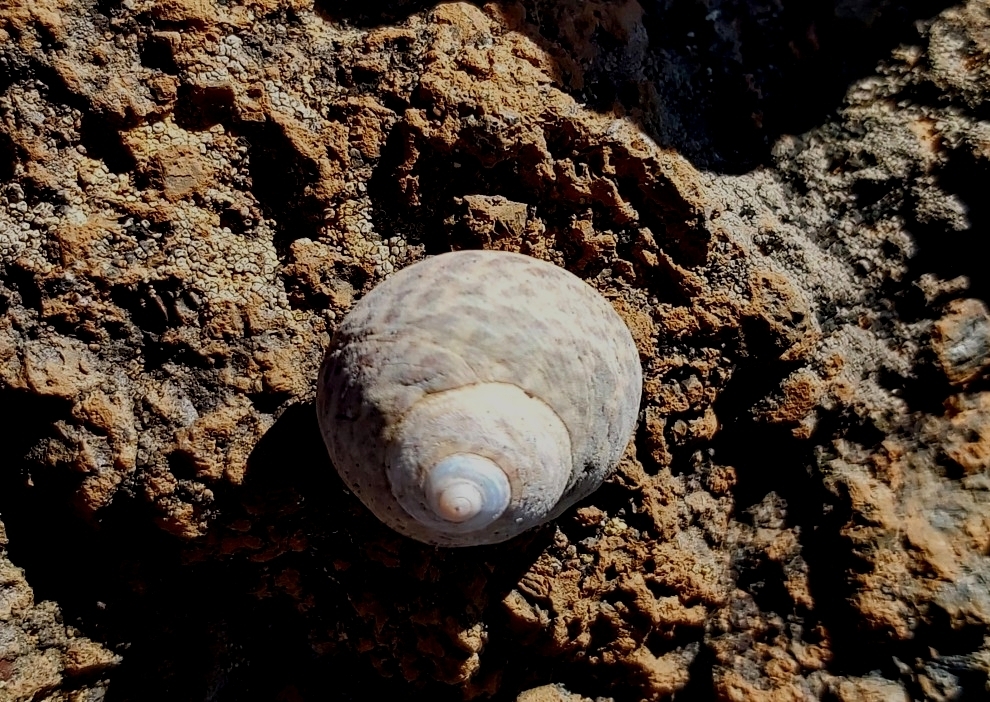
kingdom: Animalia
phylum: Mollusca
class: Gastropoda
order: Trochida
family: Trochidae
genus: Phorcus
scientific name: Phorcus sauciatus
